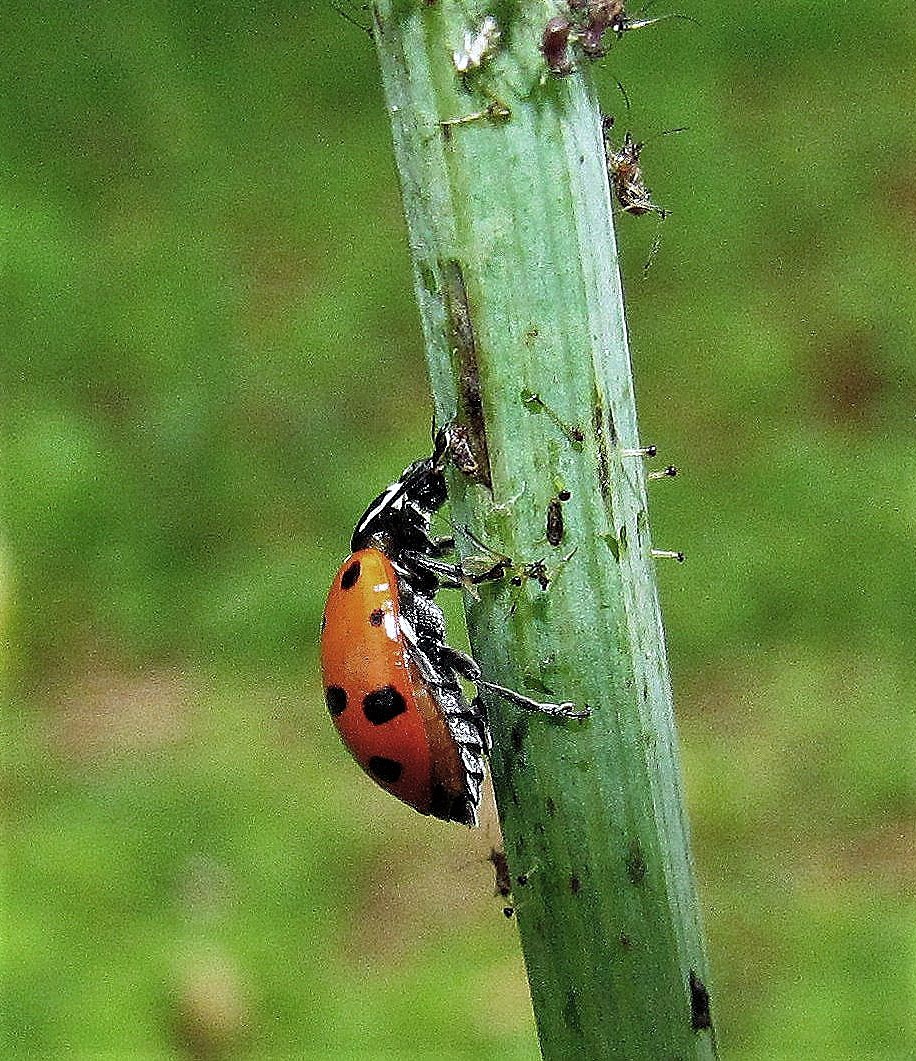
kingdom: Animalia
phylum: Arthropoda
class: Insecta
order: Coleoptera
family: Coccinellidae
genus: Hippodamia
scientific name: Hippodamia convergens
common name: Convergent lady beetle
